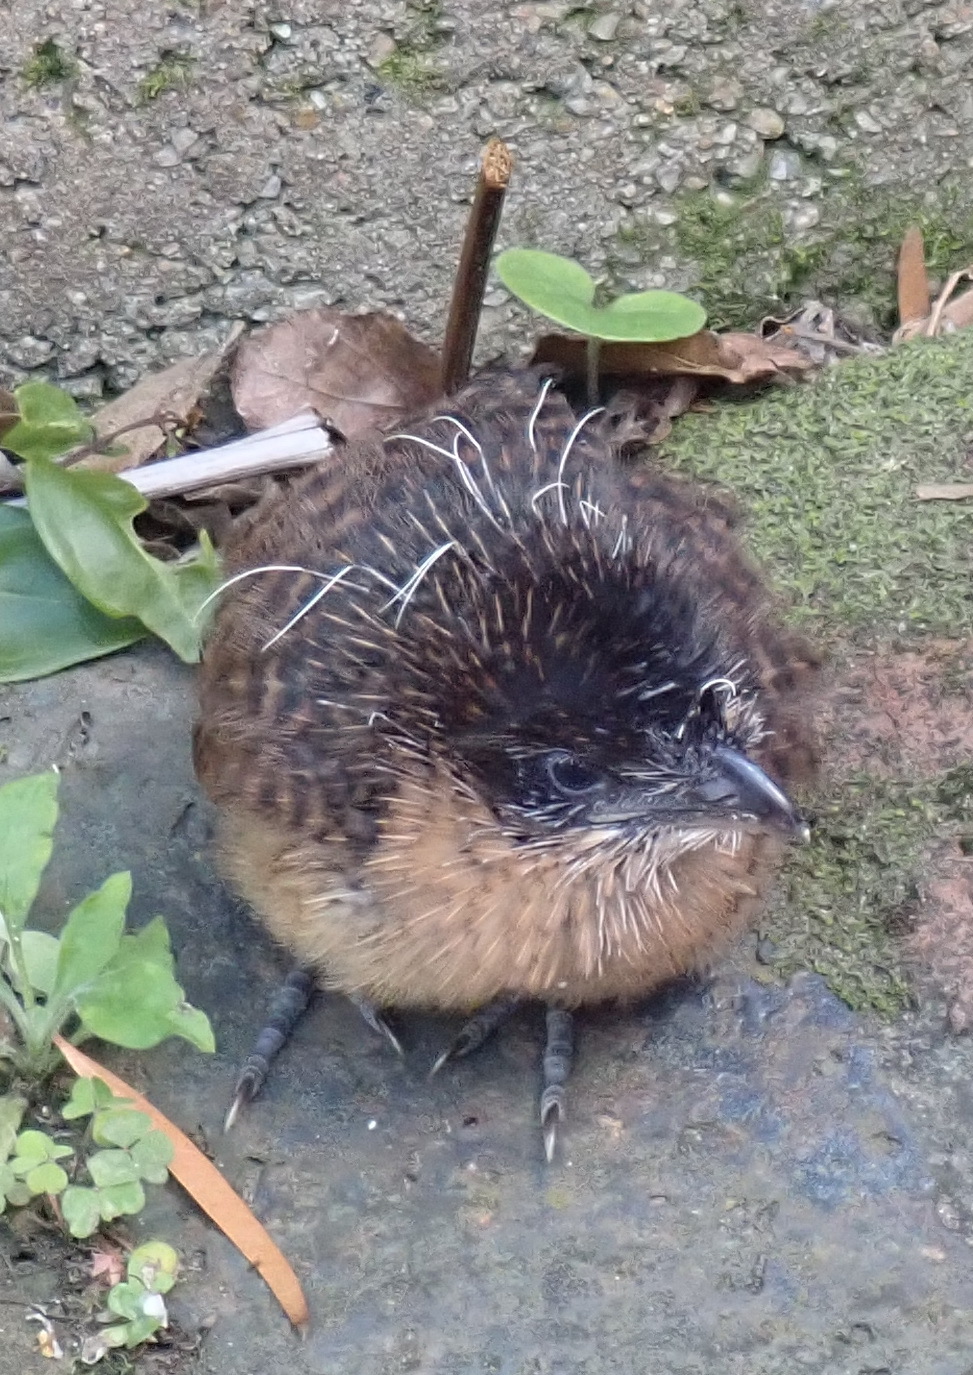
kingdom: Animalia
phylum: Chordata
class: Aves
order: Cuculiformes
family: Cuculidae
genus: Centropus
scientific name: Centropus superciliosus
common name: White-browed coucal
